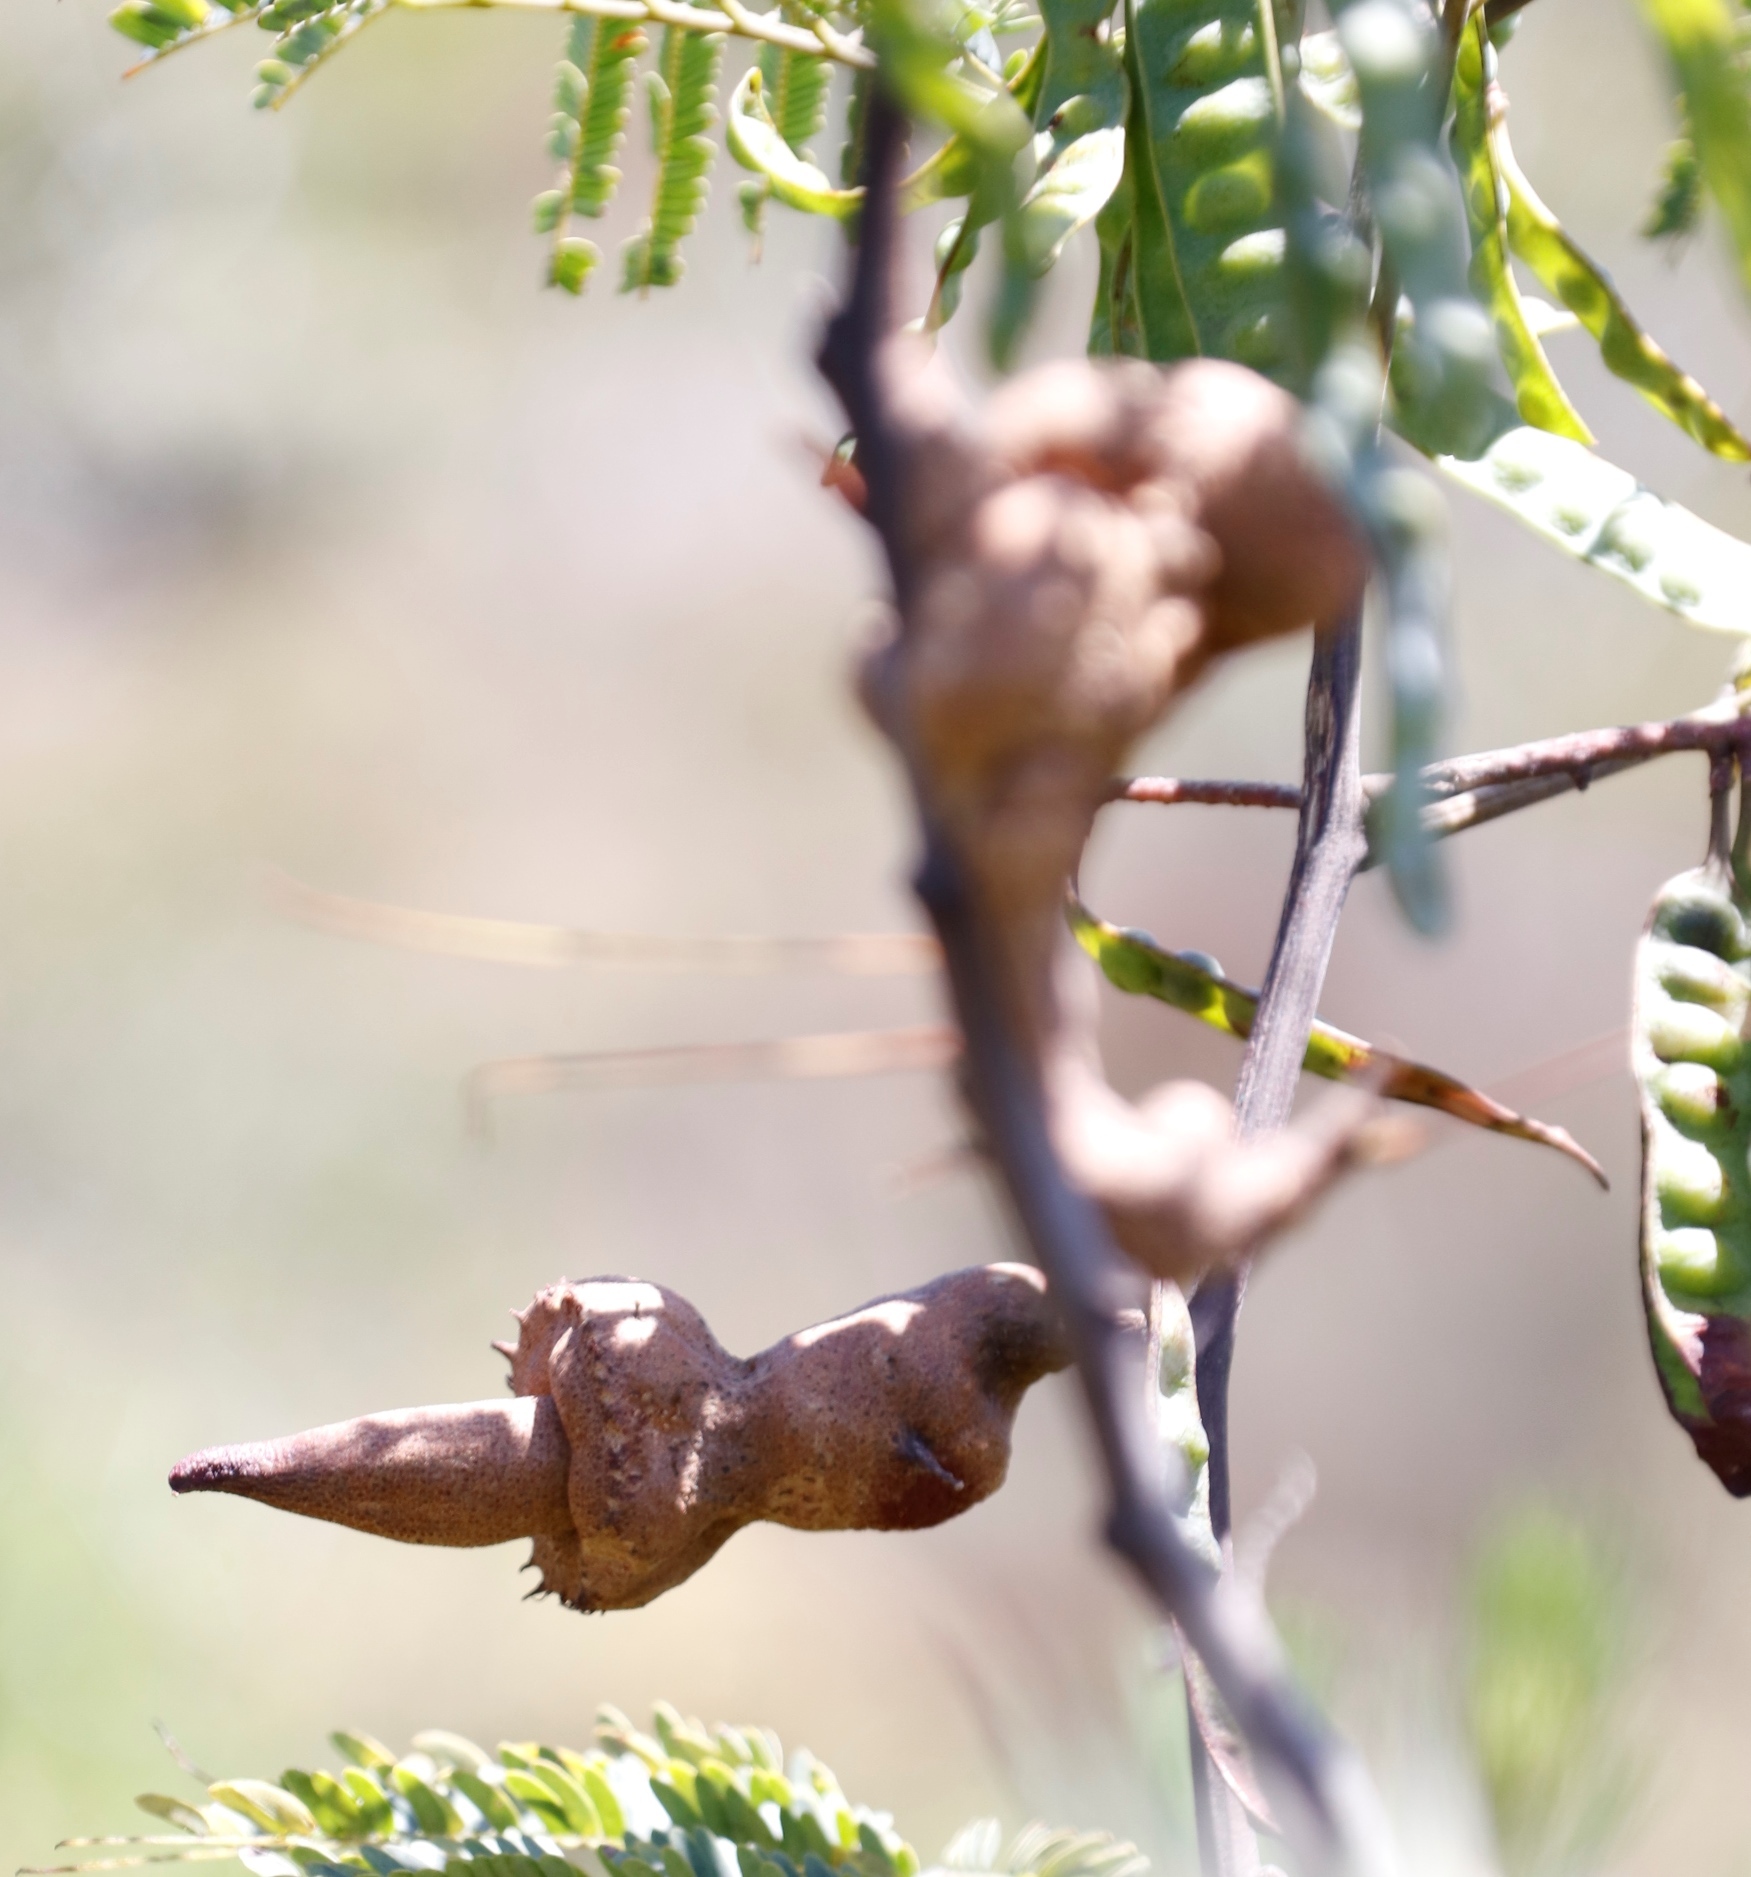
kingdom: Fungi
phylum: Basidiomycota
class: Pucciniomycetes
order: Pucciniales
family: Uromycladiaceae
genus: Uromycladium
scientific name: Uromycladium woodii
